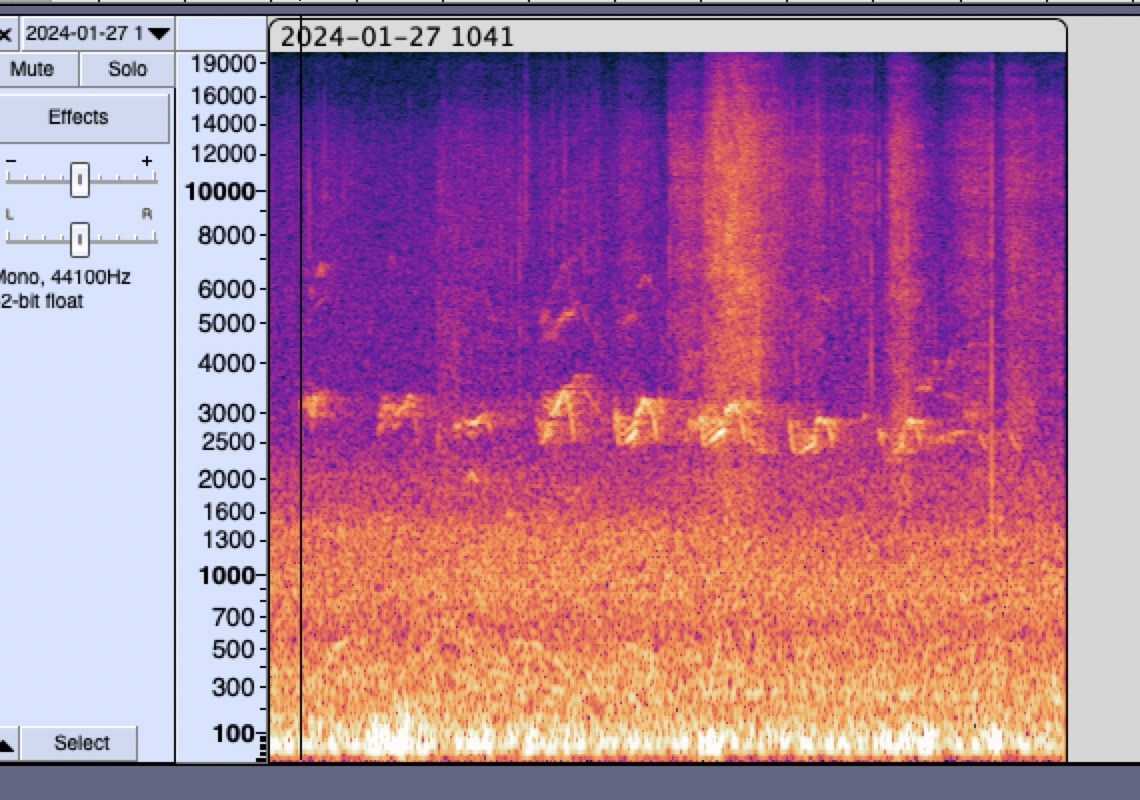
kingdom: Animalia
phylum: Chordata
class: Aves
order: Gruiformes
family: Rallidae
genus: Rallus
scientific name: Rallus aquaticus
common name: Water rail
